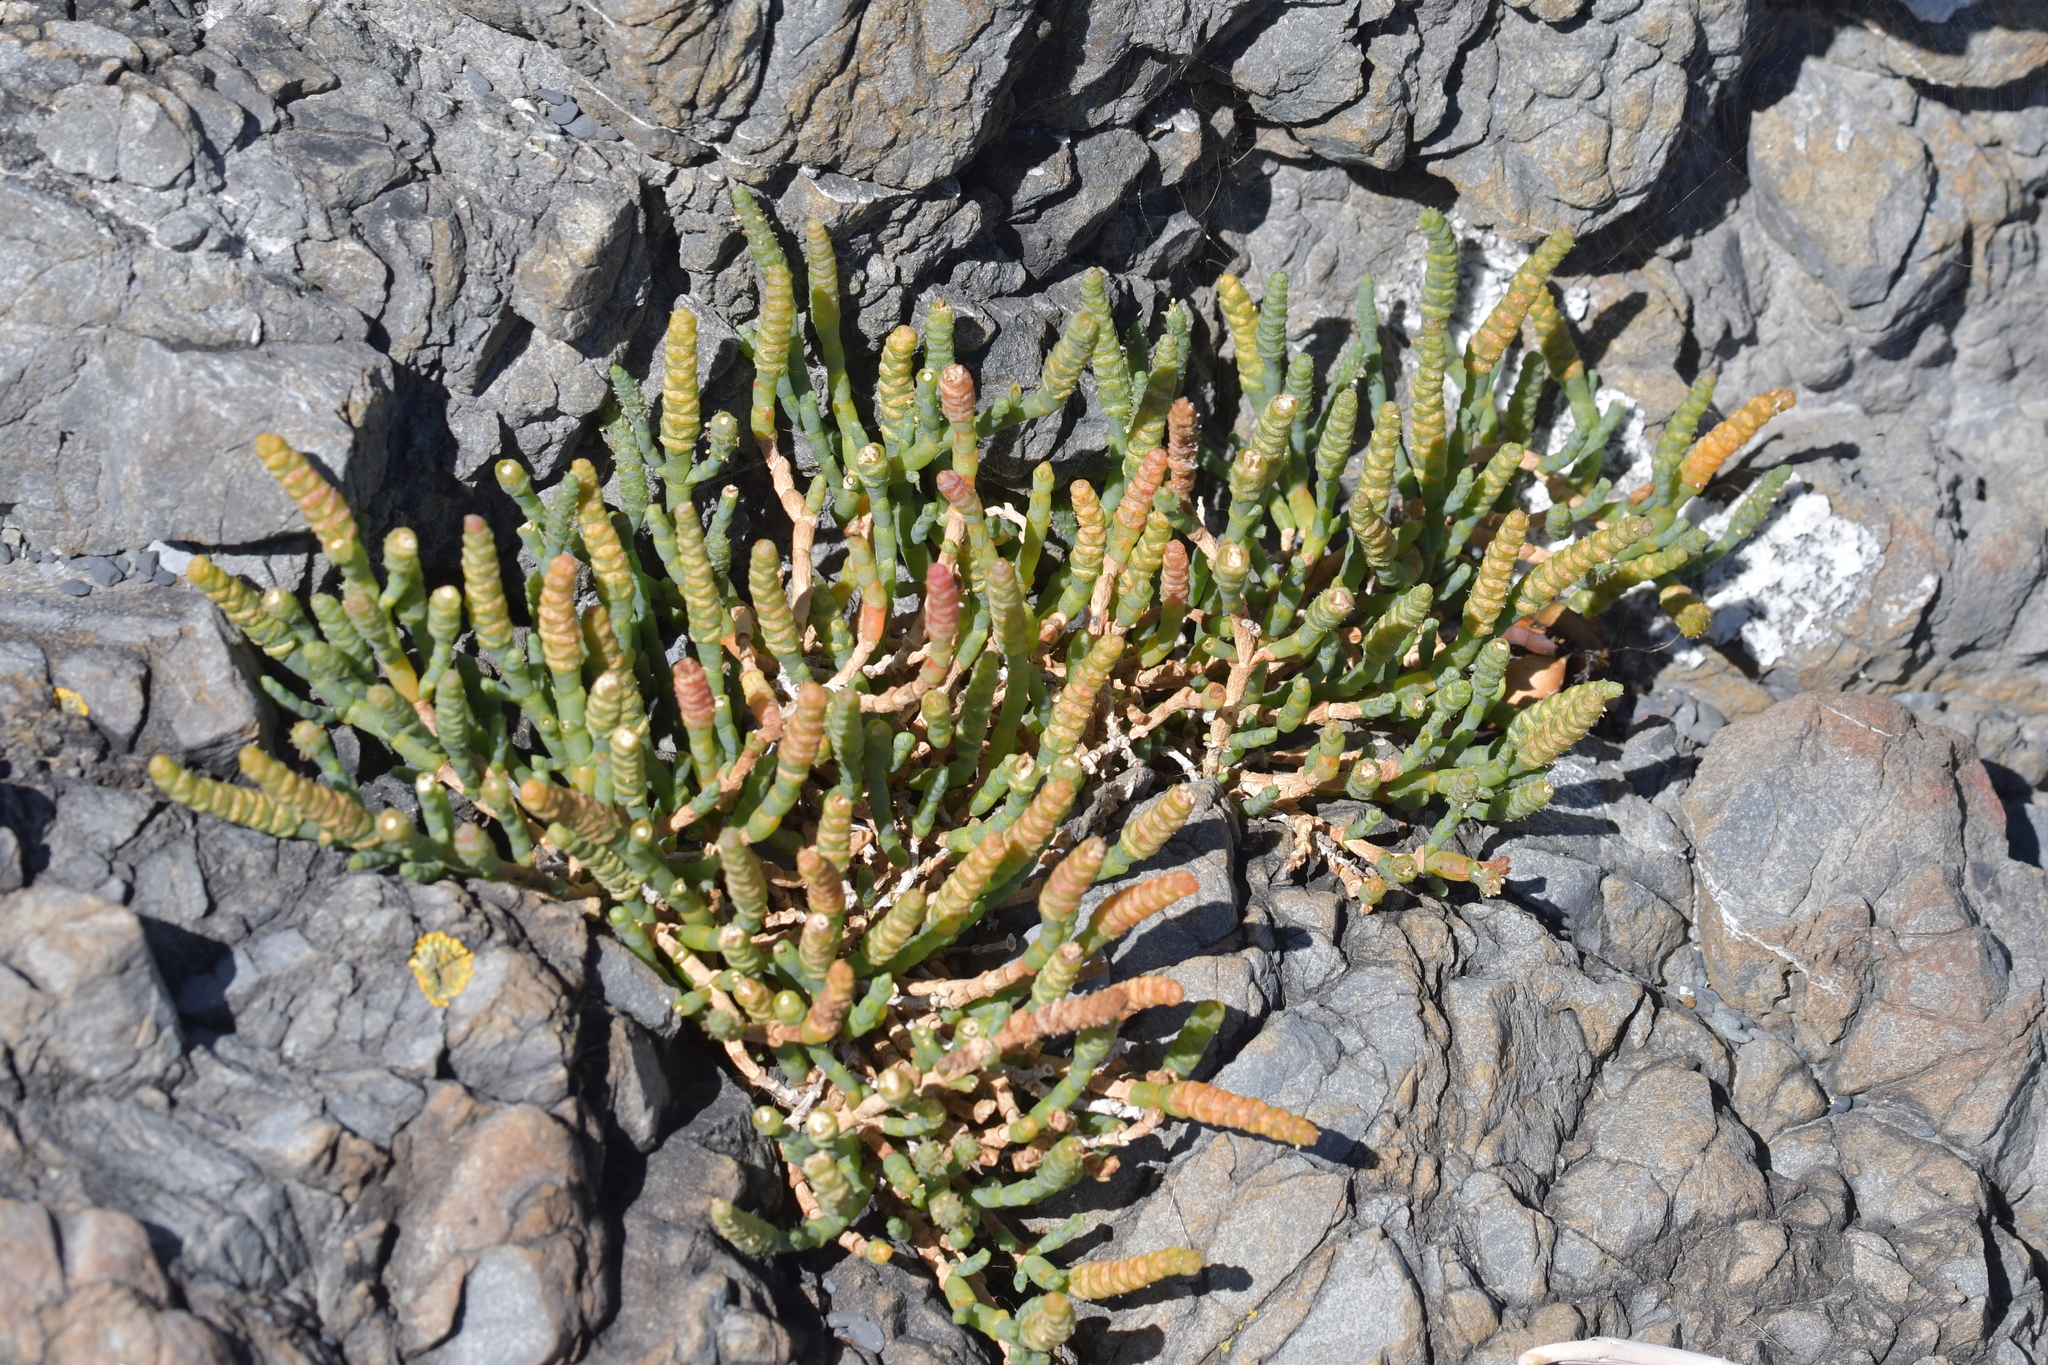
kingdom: Plantae
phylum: Tracheophyta
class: Magnoliopsida
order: Caryophyllales
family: Amaranthaceae
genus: Salicornia
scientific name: Salicornia quinqueflora
